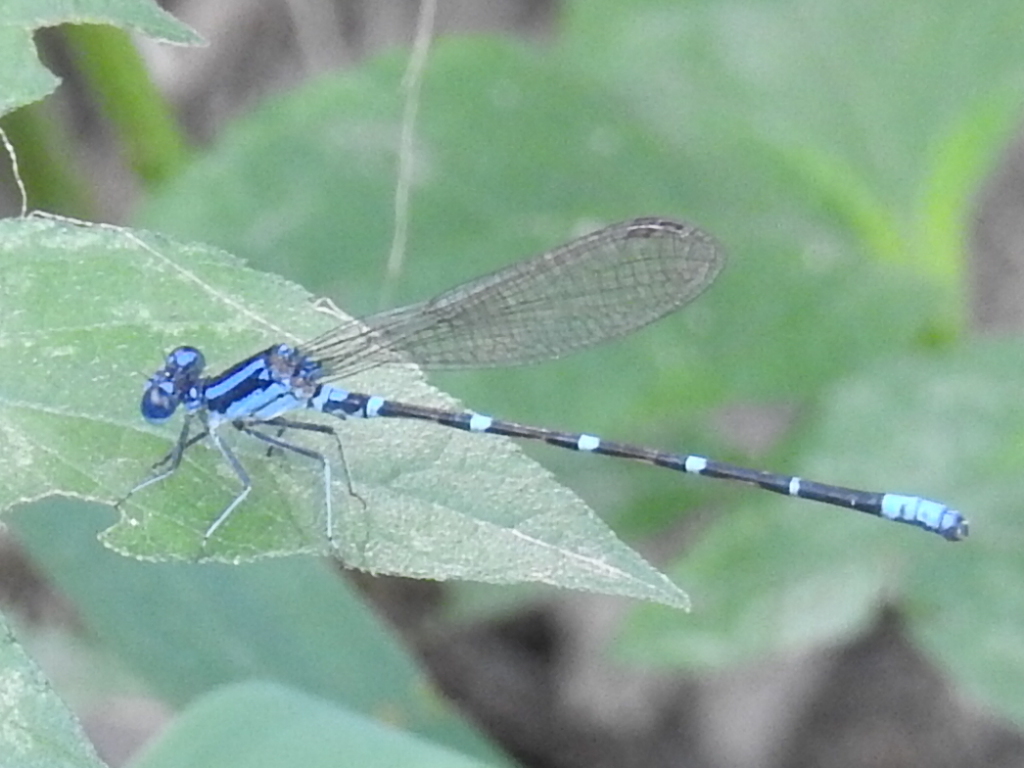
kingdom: Animalia
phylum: Arthropoda
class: Insecta
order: Odonata
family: Coenagrionidae
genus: Argia
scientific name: Argia sedula
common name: Blue-ringed dancer
